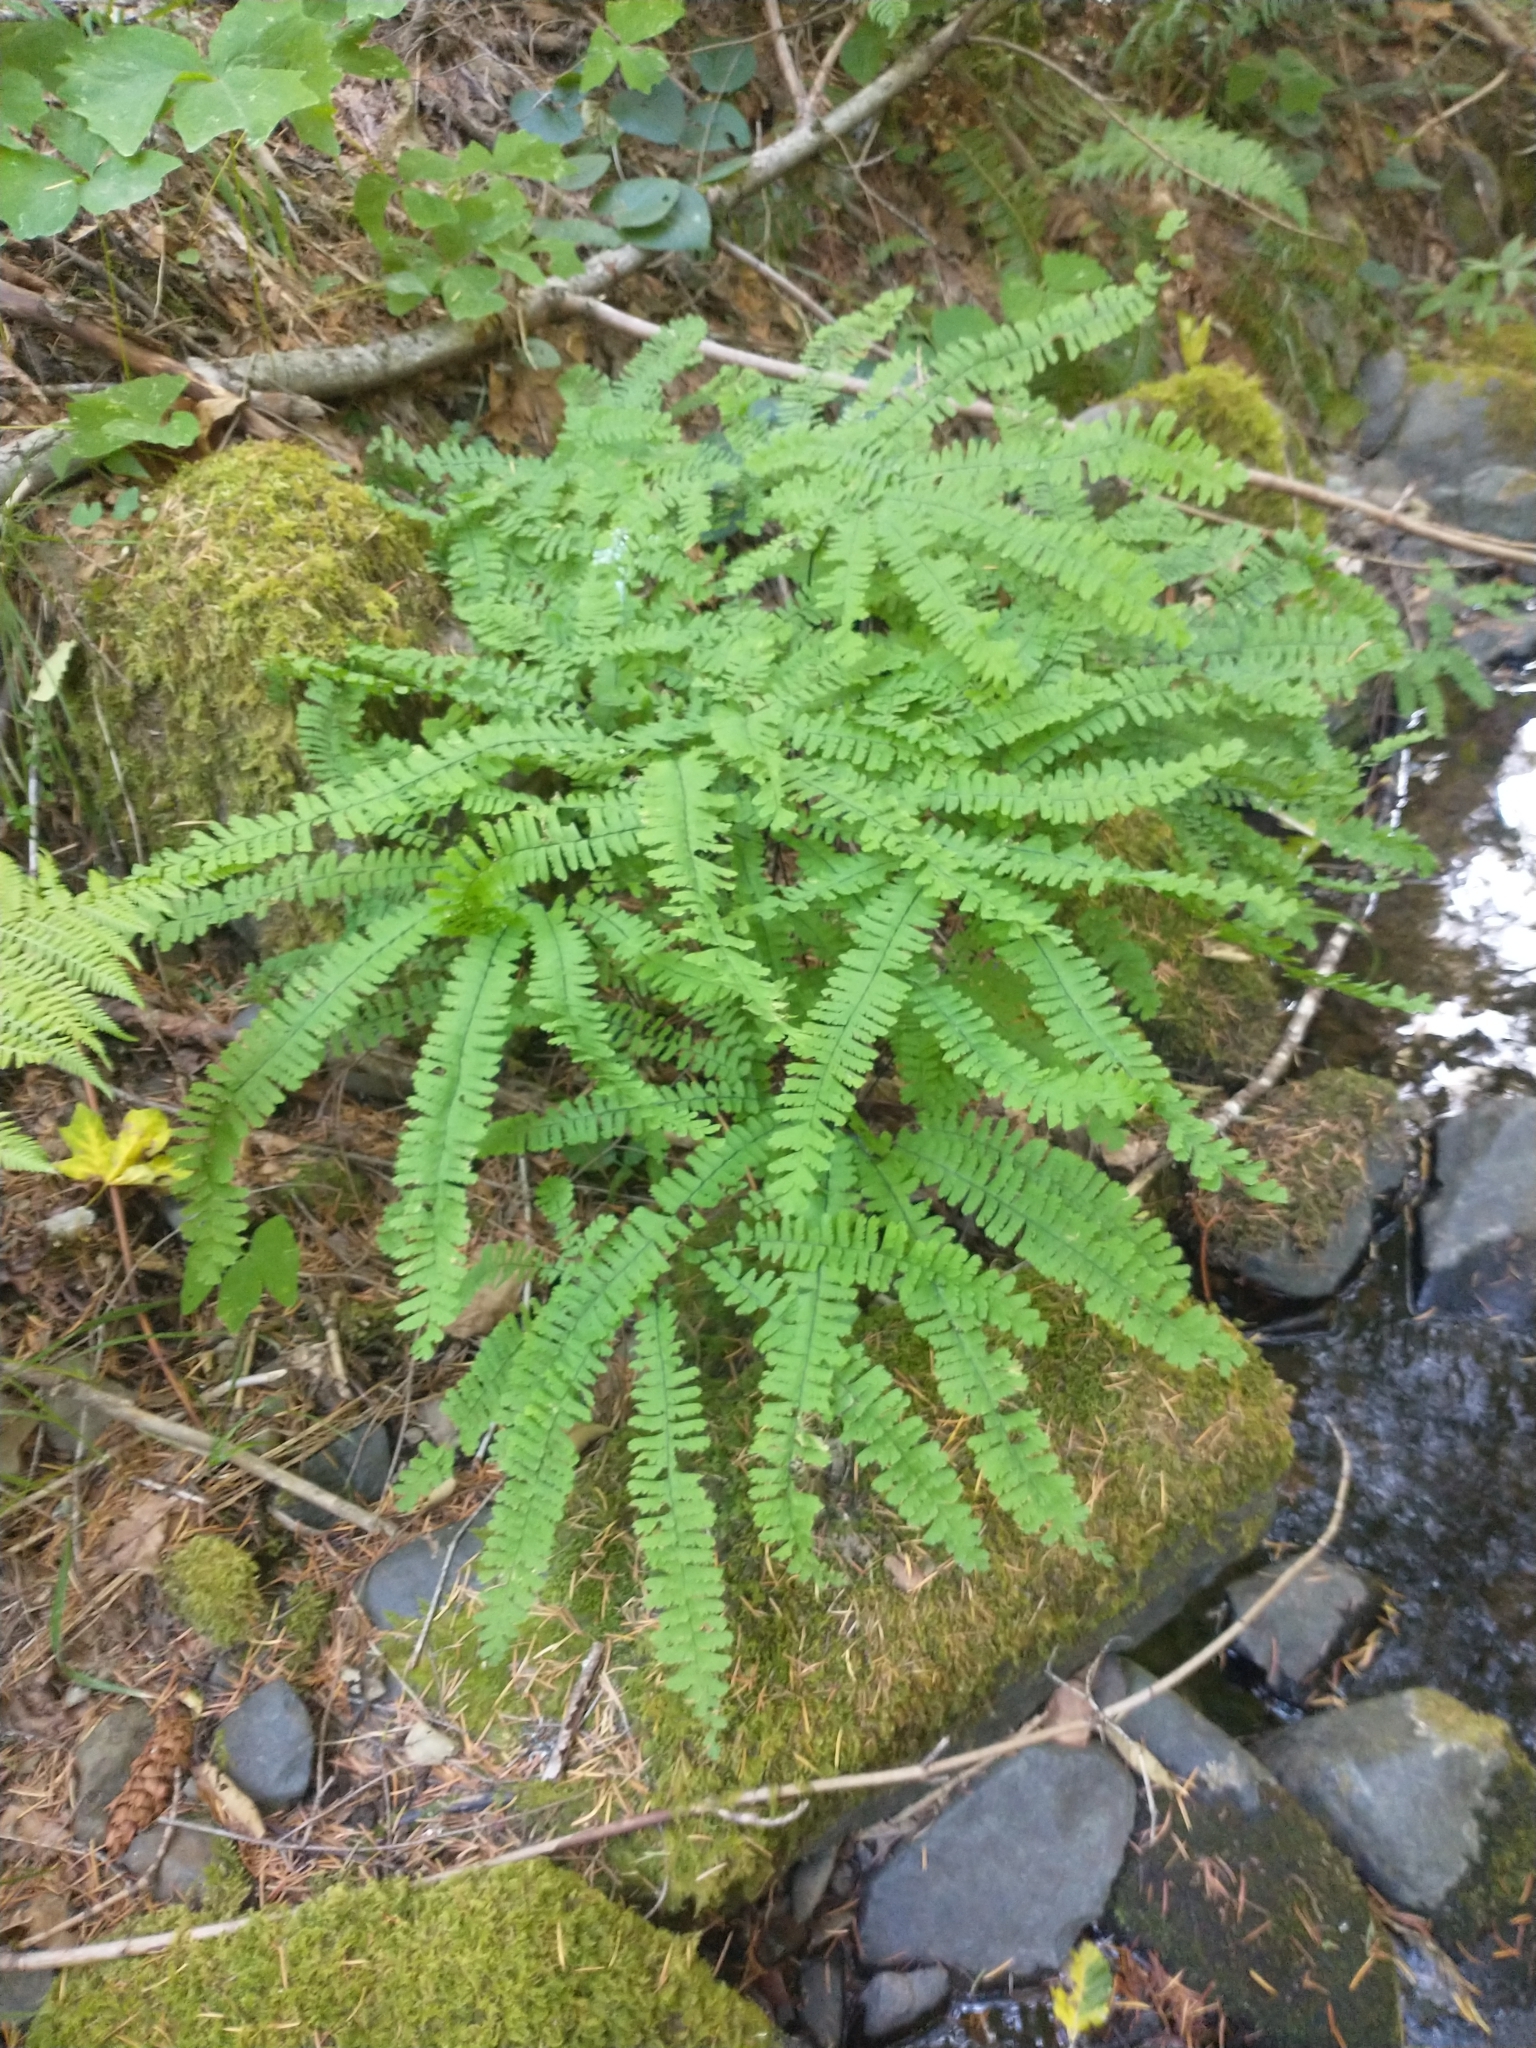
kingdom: Plantae
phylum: Tracheophyta
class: Polypodiopsida
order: Polypodiales
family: Pteridaceae
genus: Adiantum
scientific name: Adiantum aleuticum
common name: Aleutian maidenhair fern
